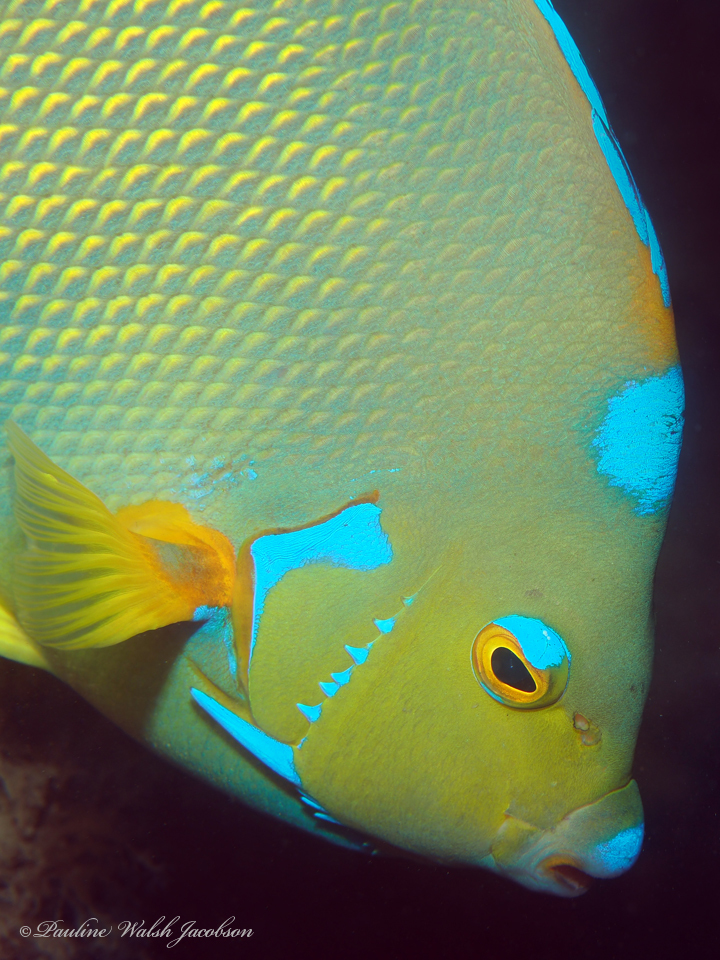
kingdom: Animalia
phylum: Chordata
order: Perciformes
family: Pomacanthidae
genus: Holacanthus
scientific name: Holacanthus ciliaris
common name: Queen angelfish
